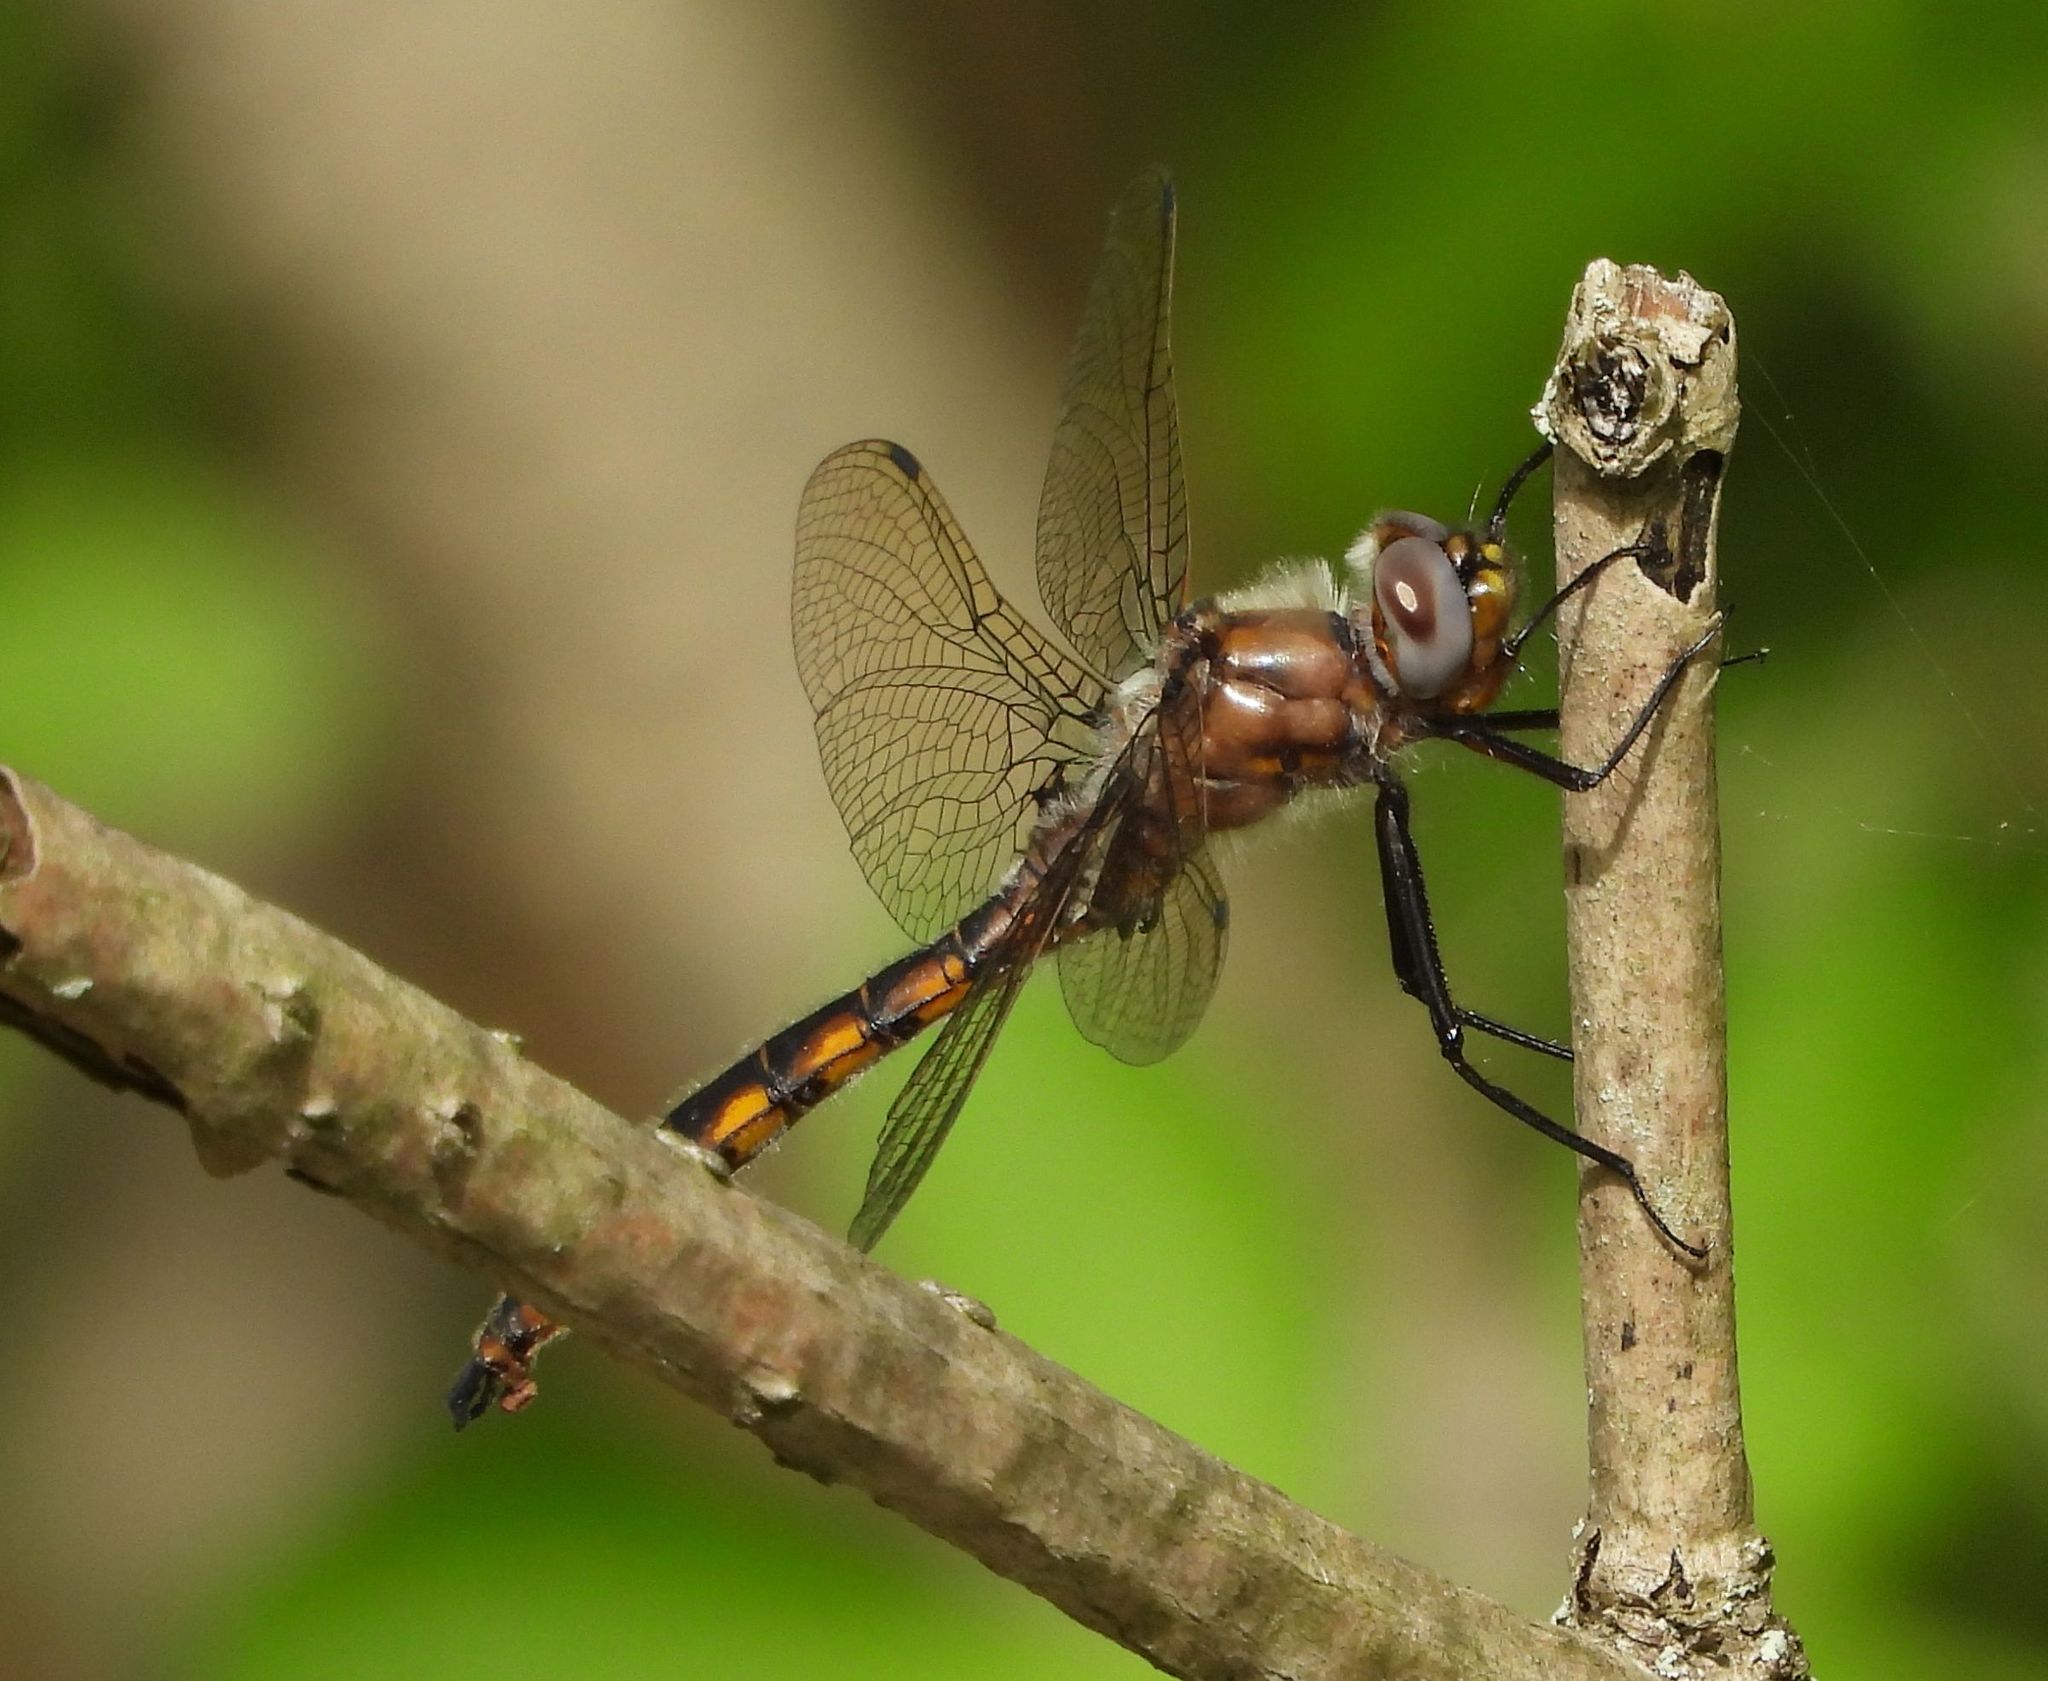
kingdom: Animalia
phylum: Arthropoda
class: Insecta
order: Odonata
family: Corduliidae
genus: Epitheca
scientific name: Epitheca canis
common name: Beaverpond baskettail
